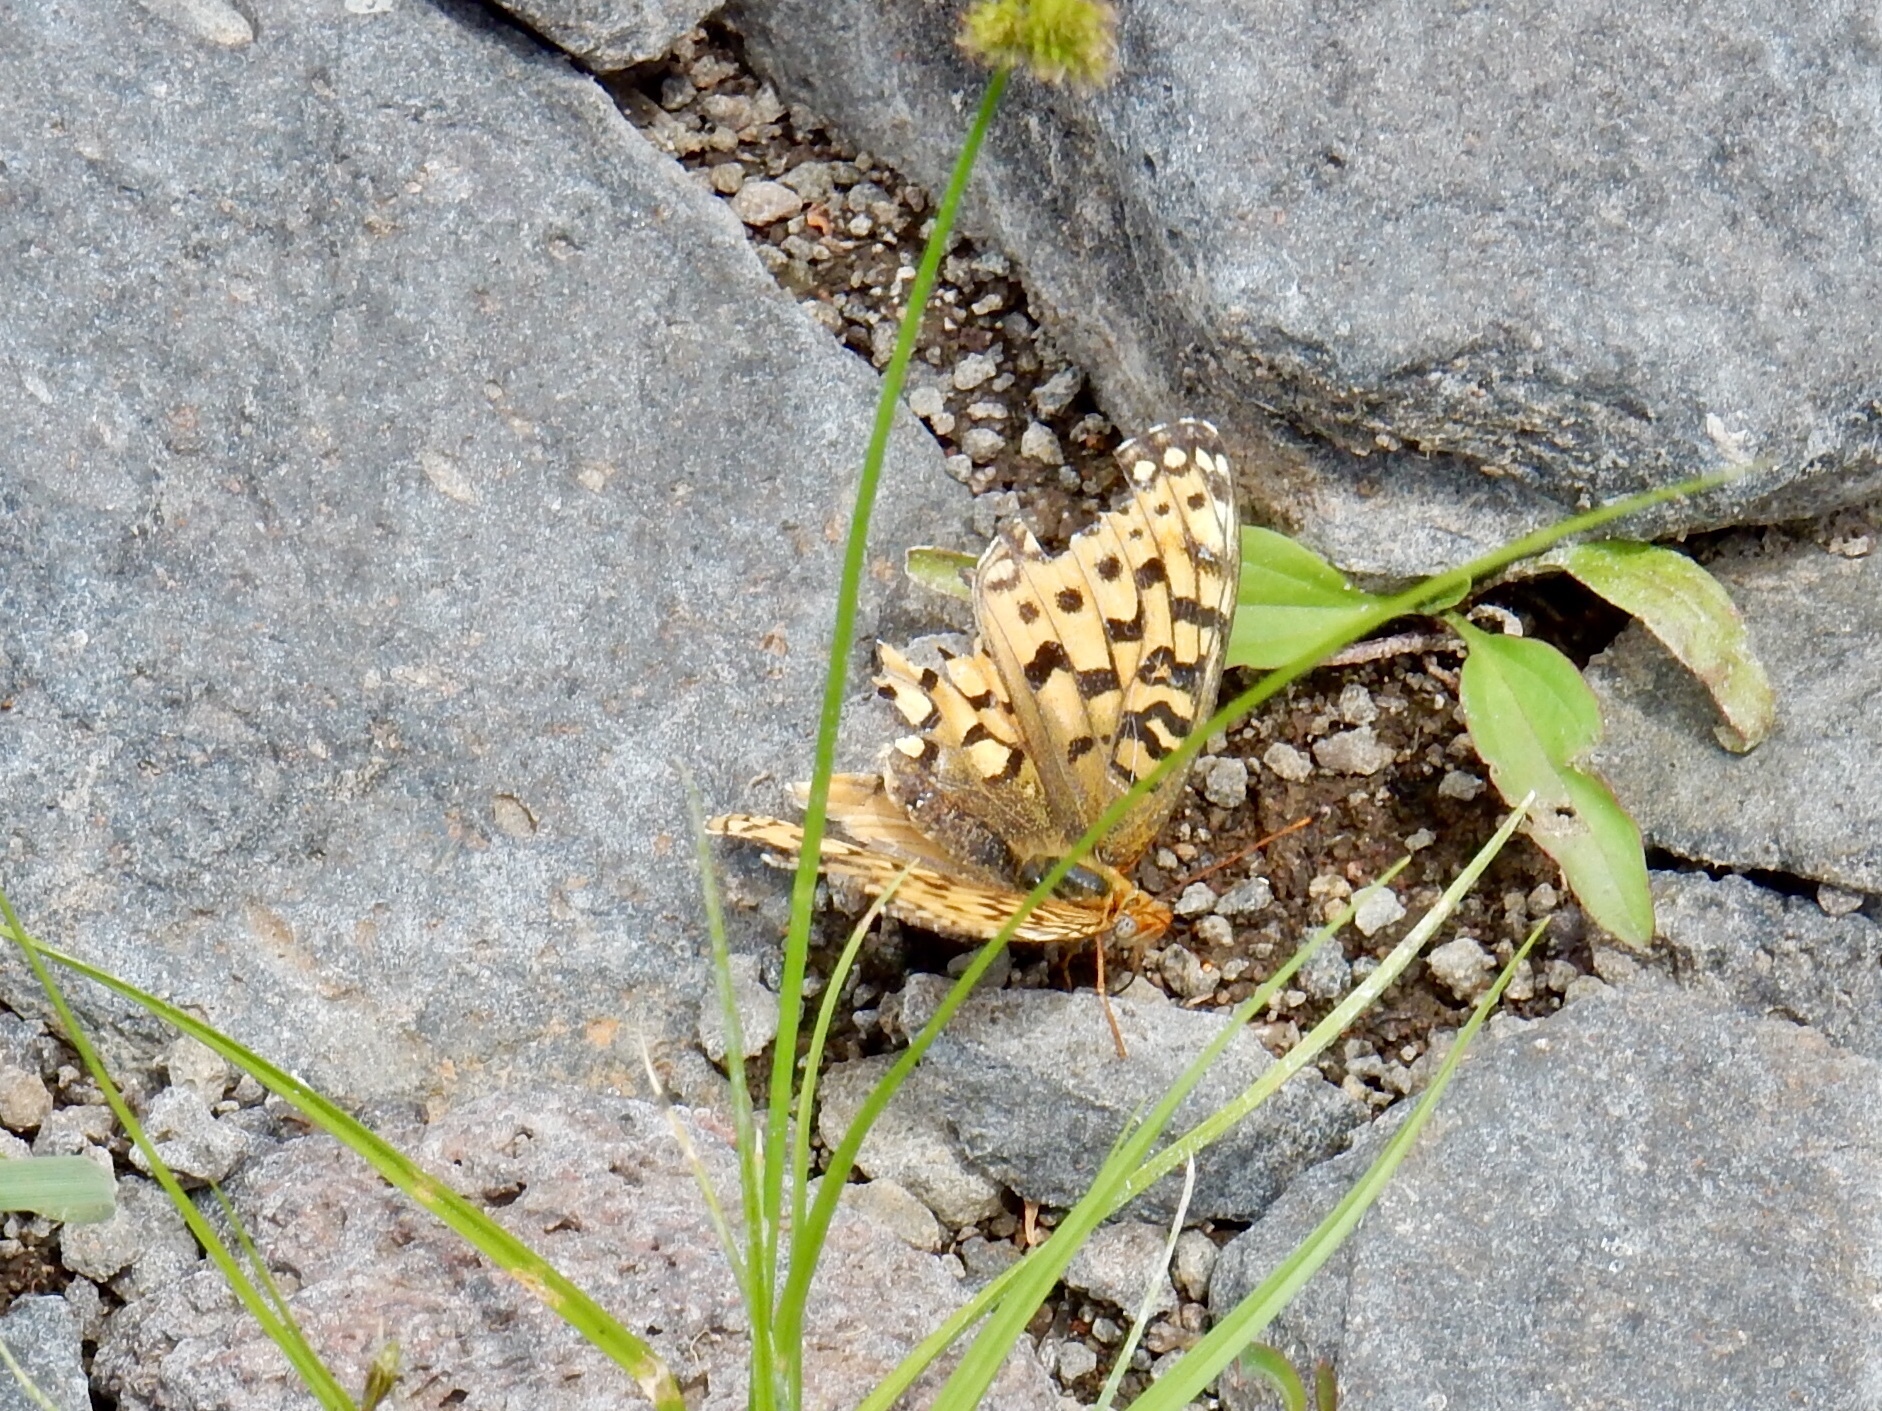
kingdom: Animalia
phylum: Arthropoda
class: Insecta
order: Lepidoptera
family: Nymphalidae
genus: Speyeria
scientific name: Speyeria zerene
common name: Zerene fritillary
